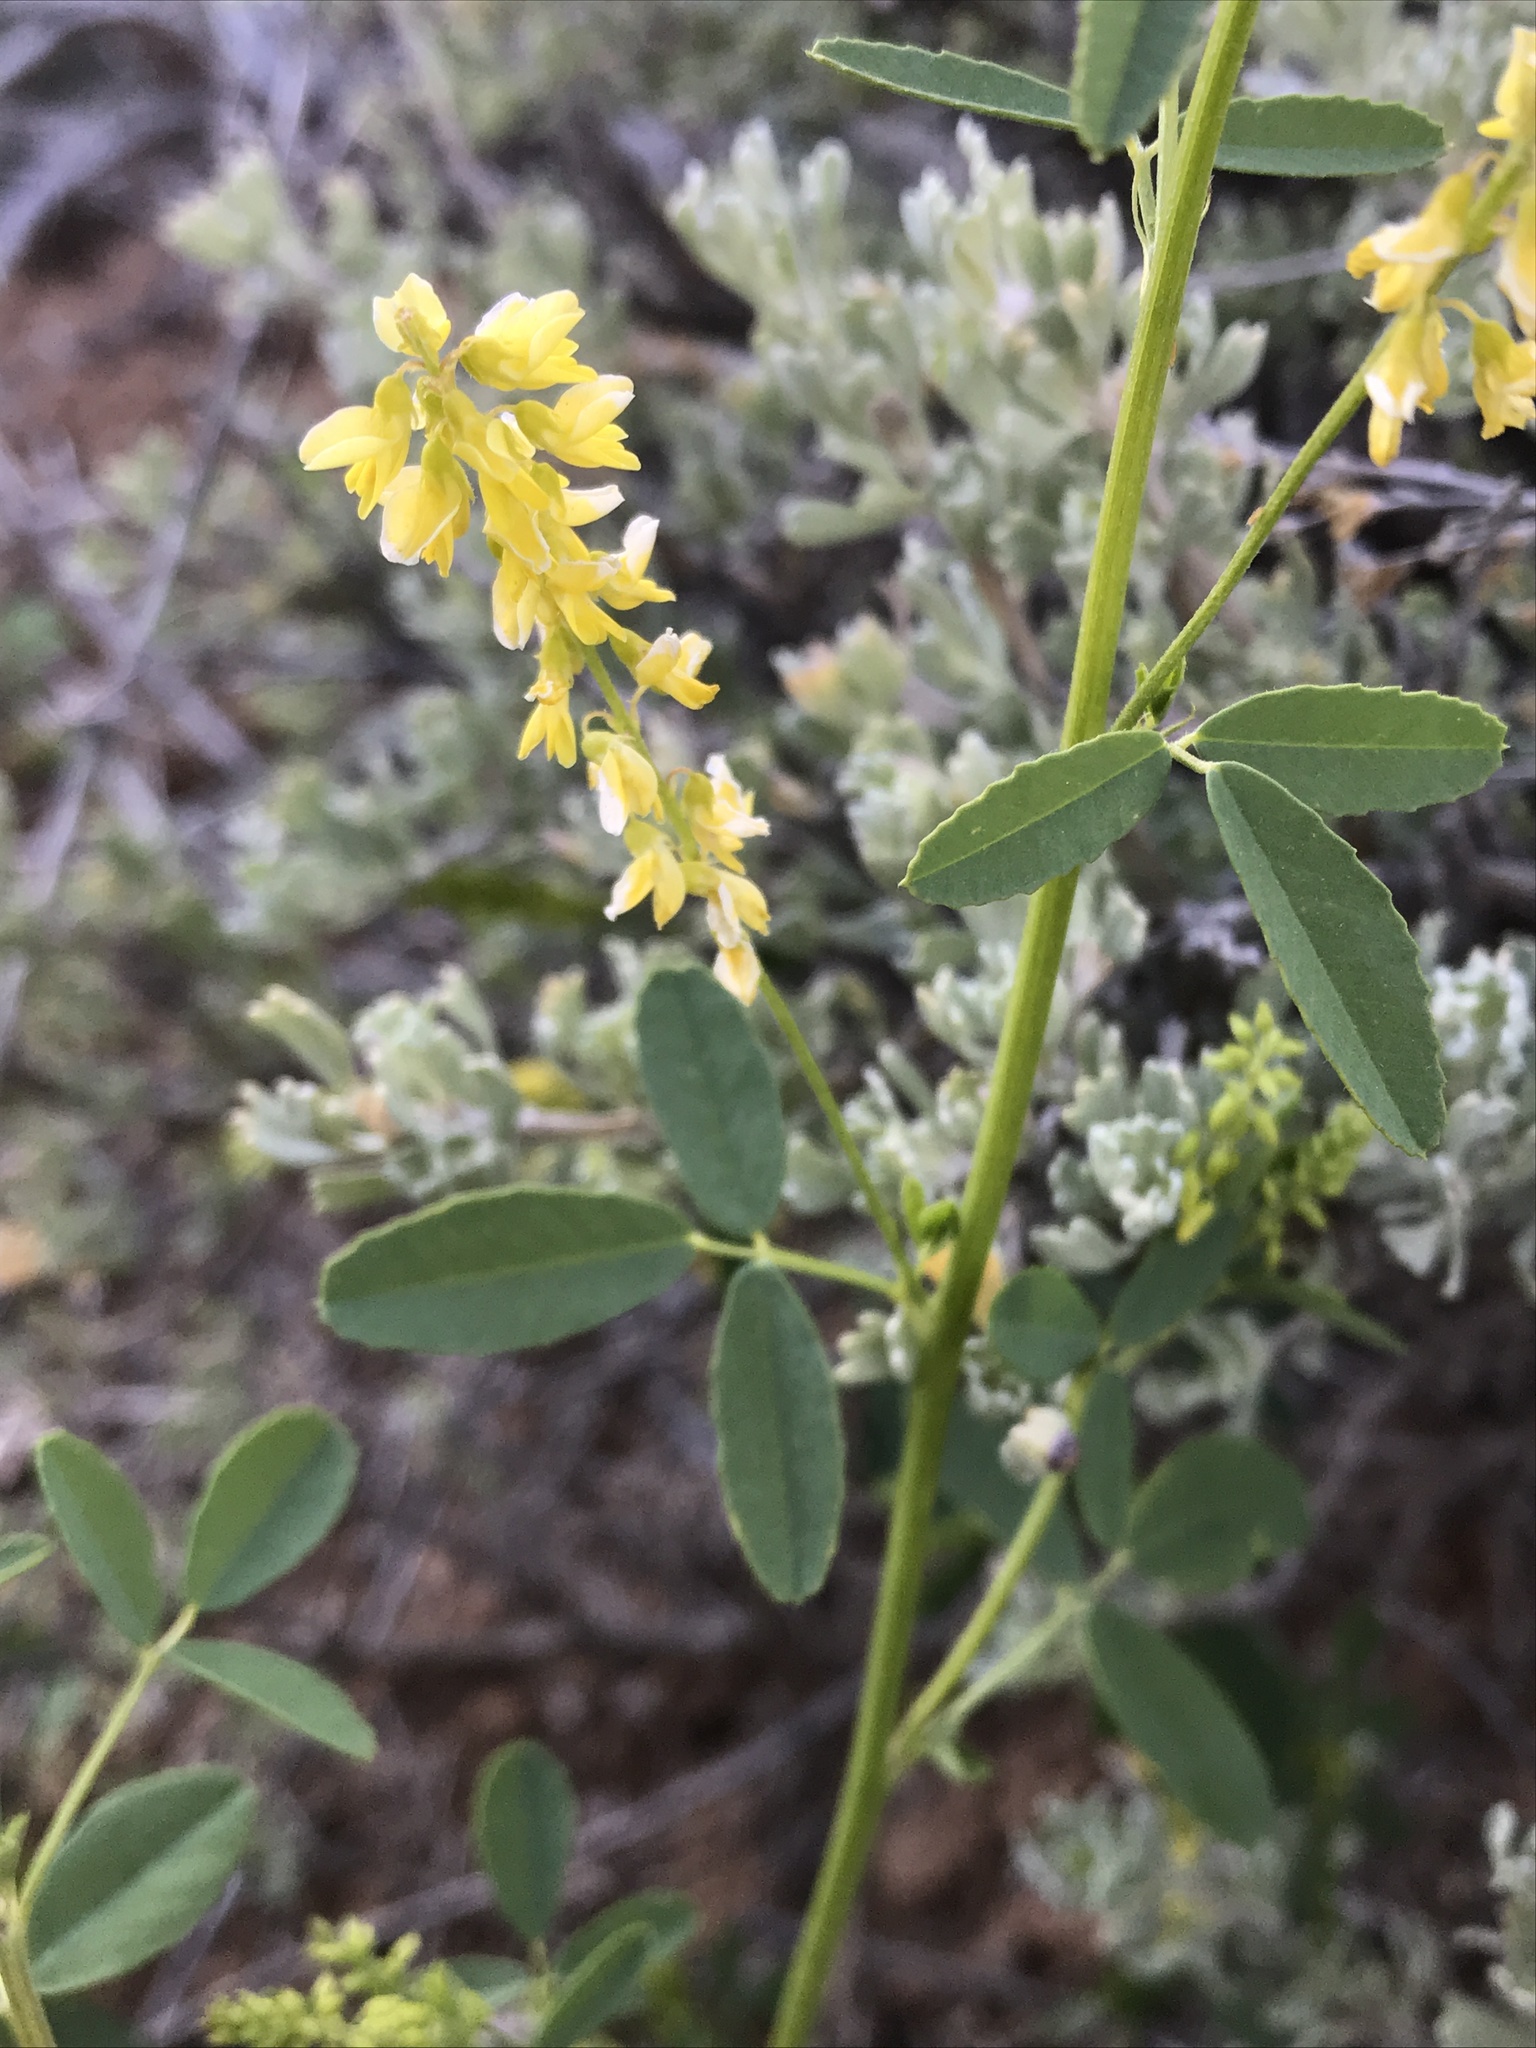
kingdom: Plantae
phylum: Tracheophyta
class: Magnoliopsida
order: Fabales
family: Fabaceae
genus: Melilotus
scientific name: Melilotus officinalis
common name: Sweetclover
